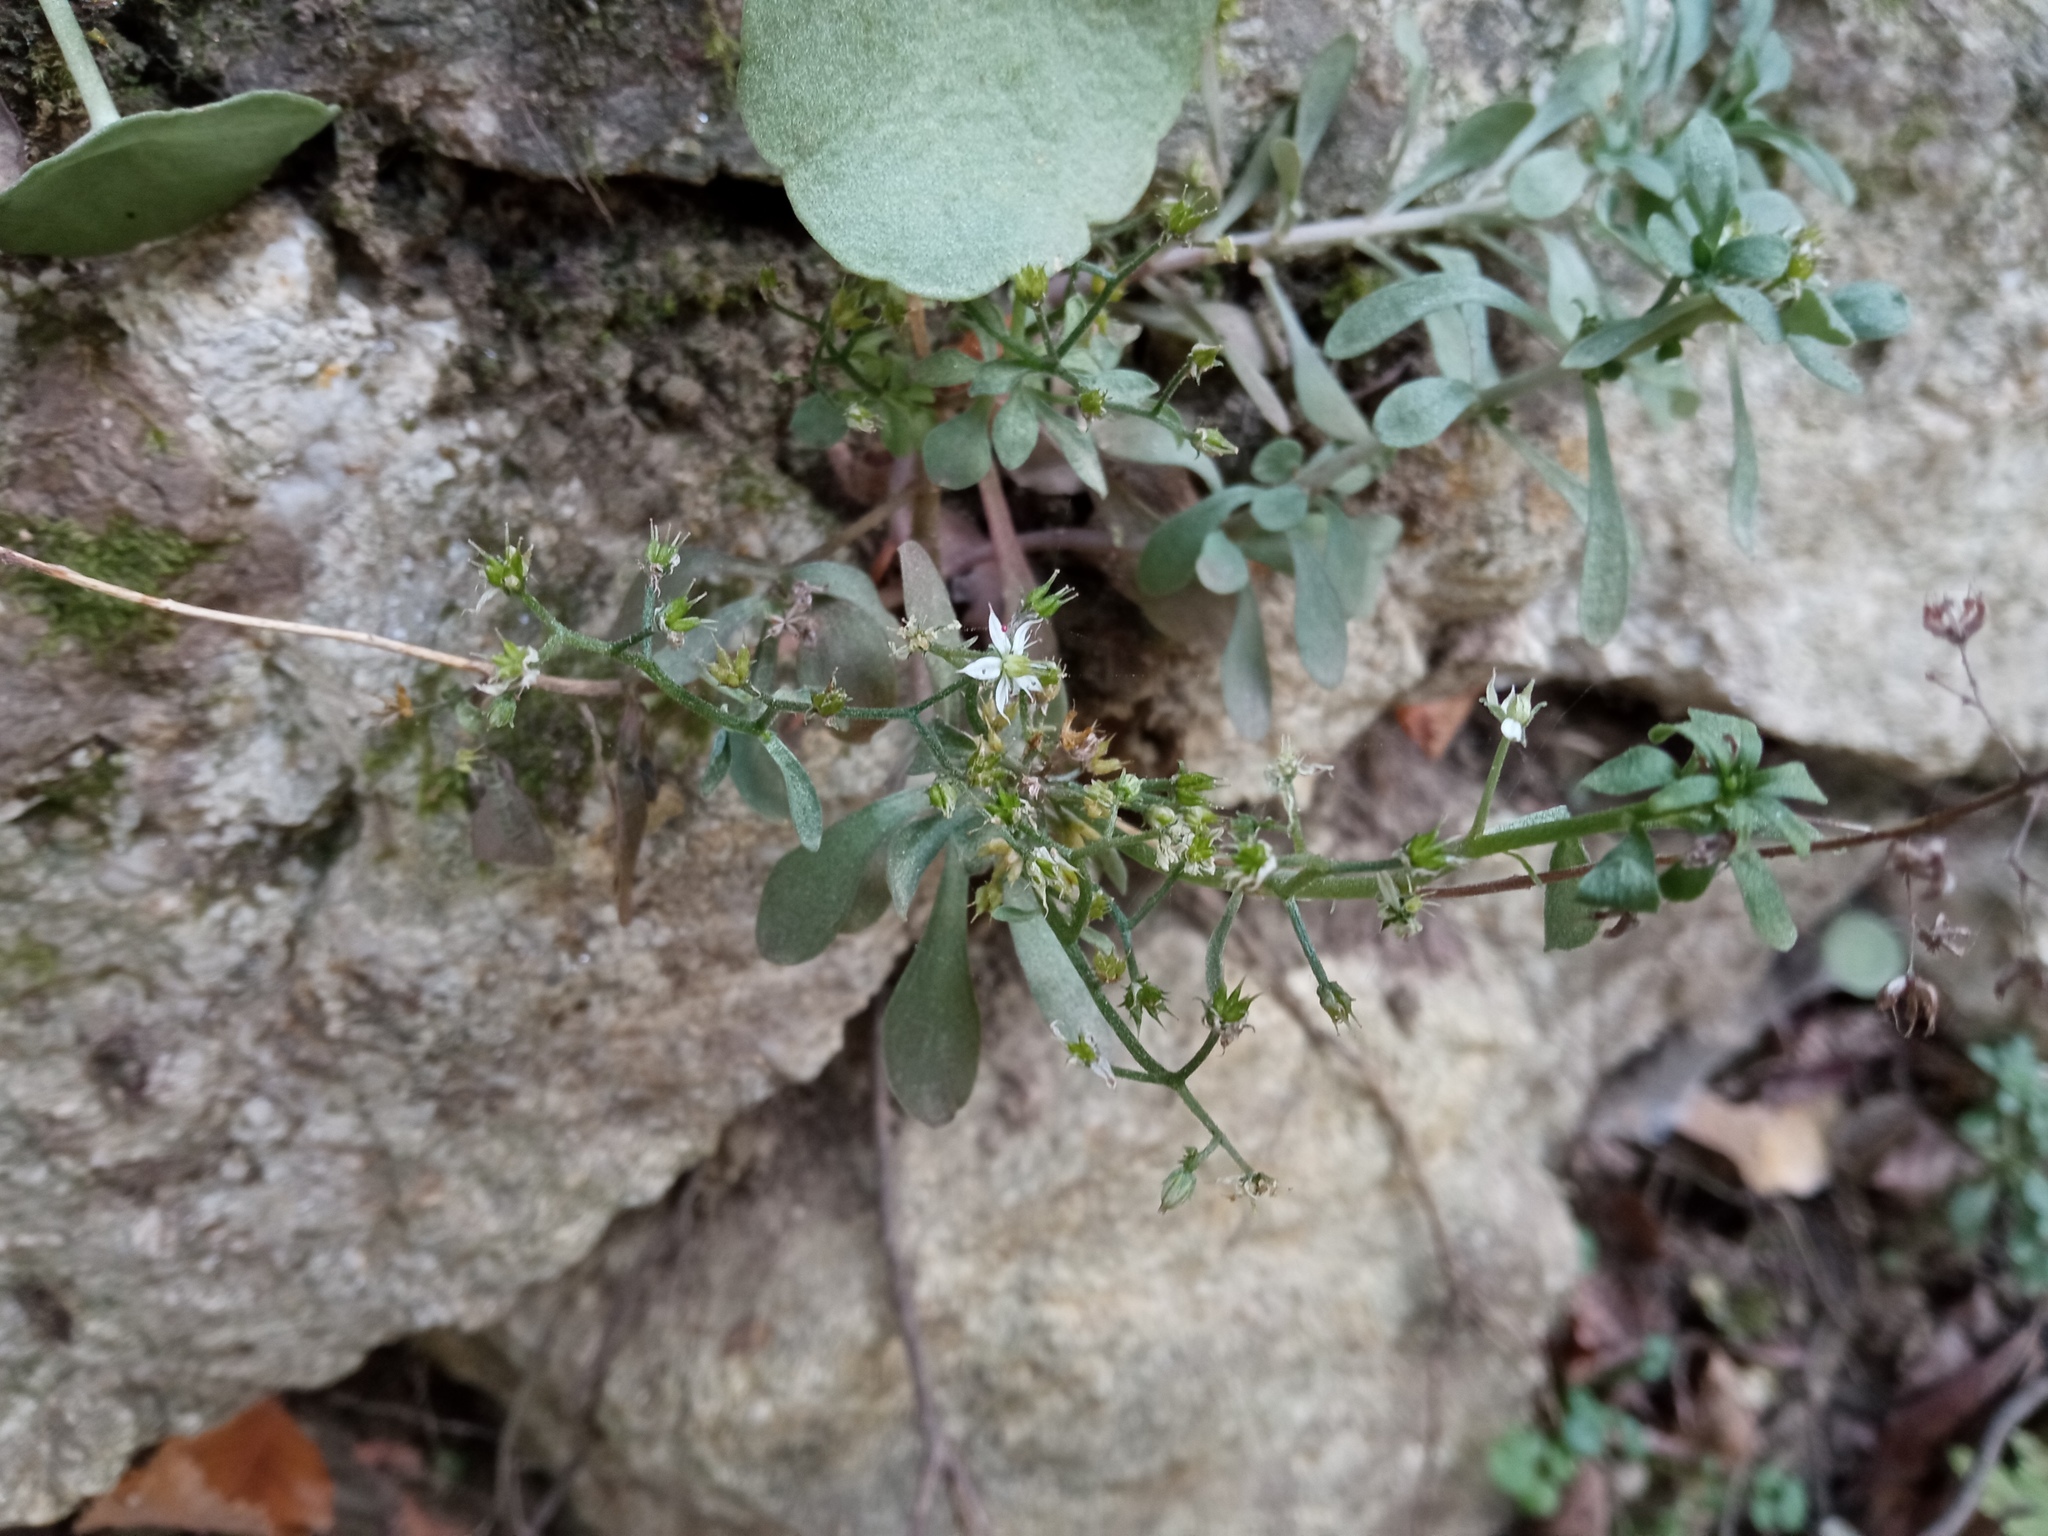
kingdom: Plantae
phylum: Tracheophyta
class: Magnoliopsida
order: Saxifragales
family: Crassulaceae
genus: Sedum
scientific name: Sedum cepaea
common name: Pink stonecrop
